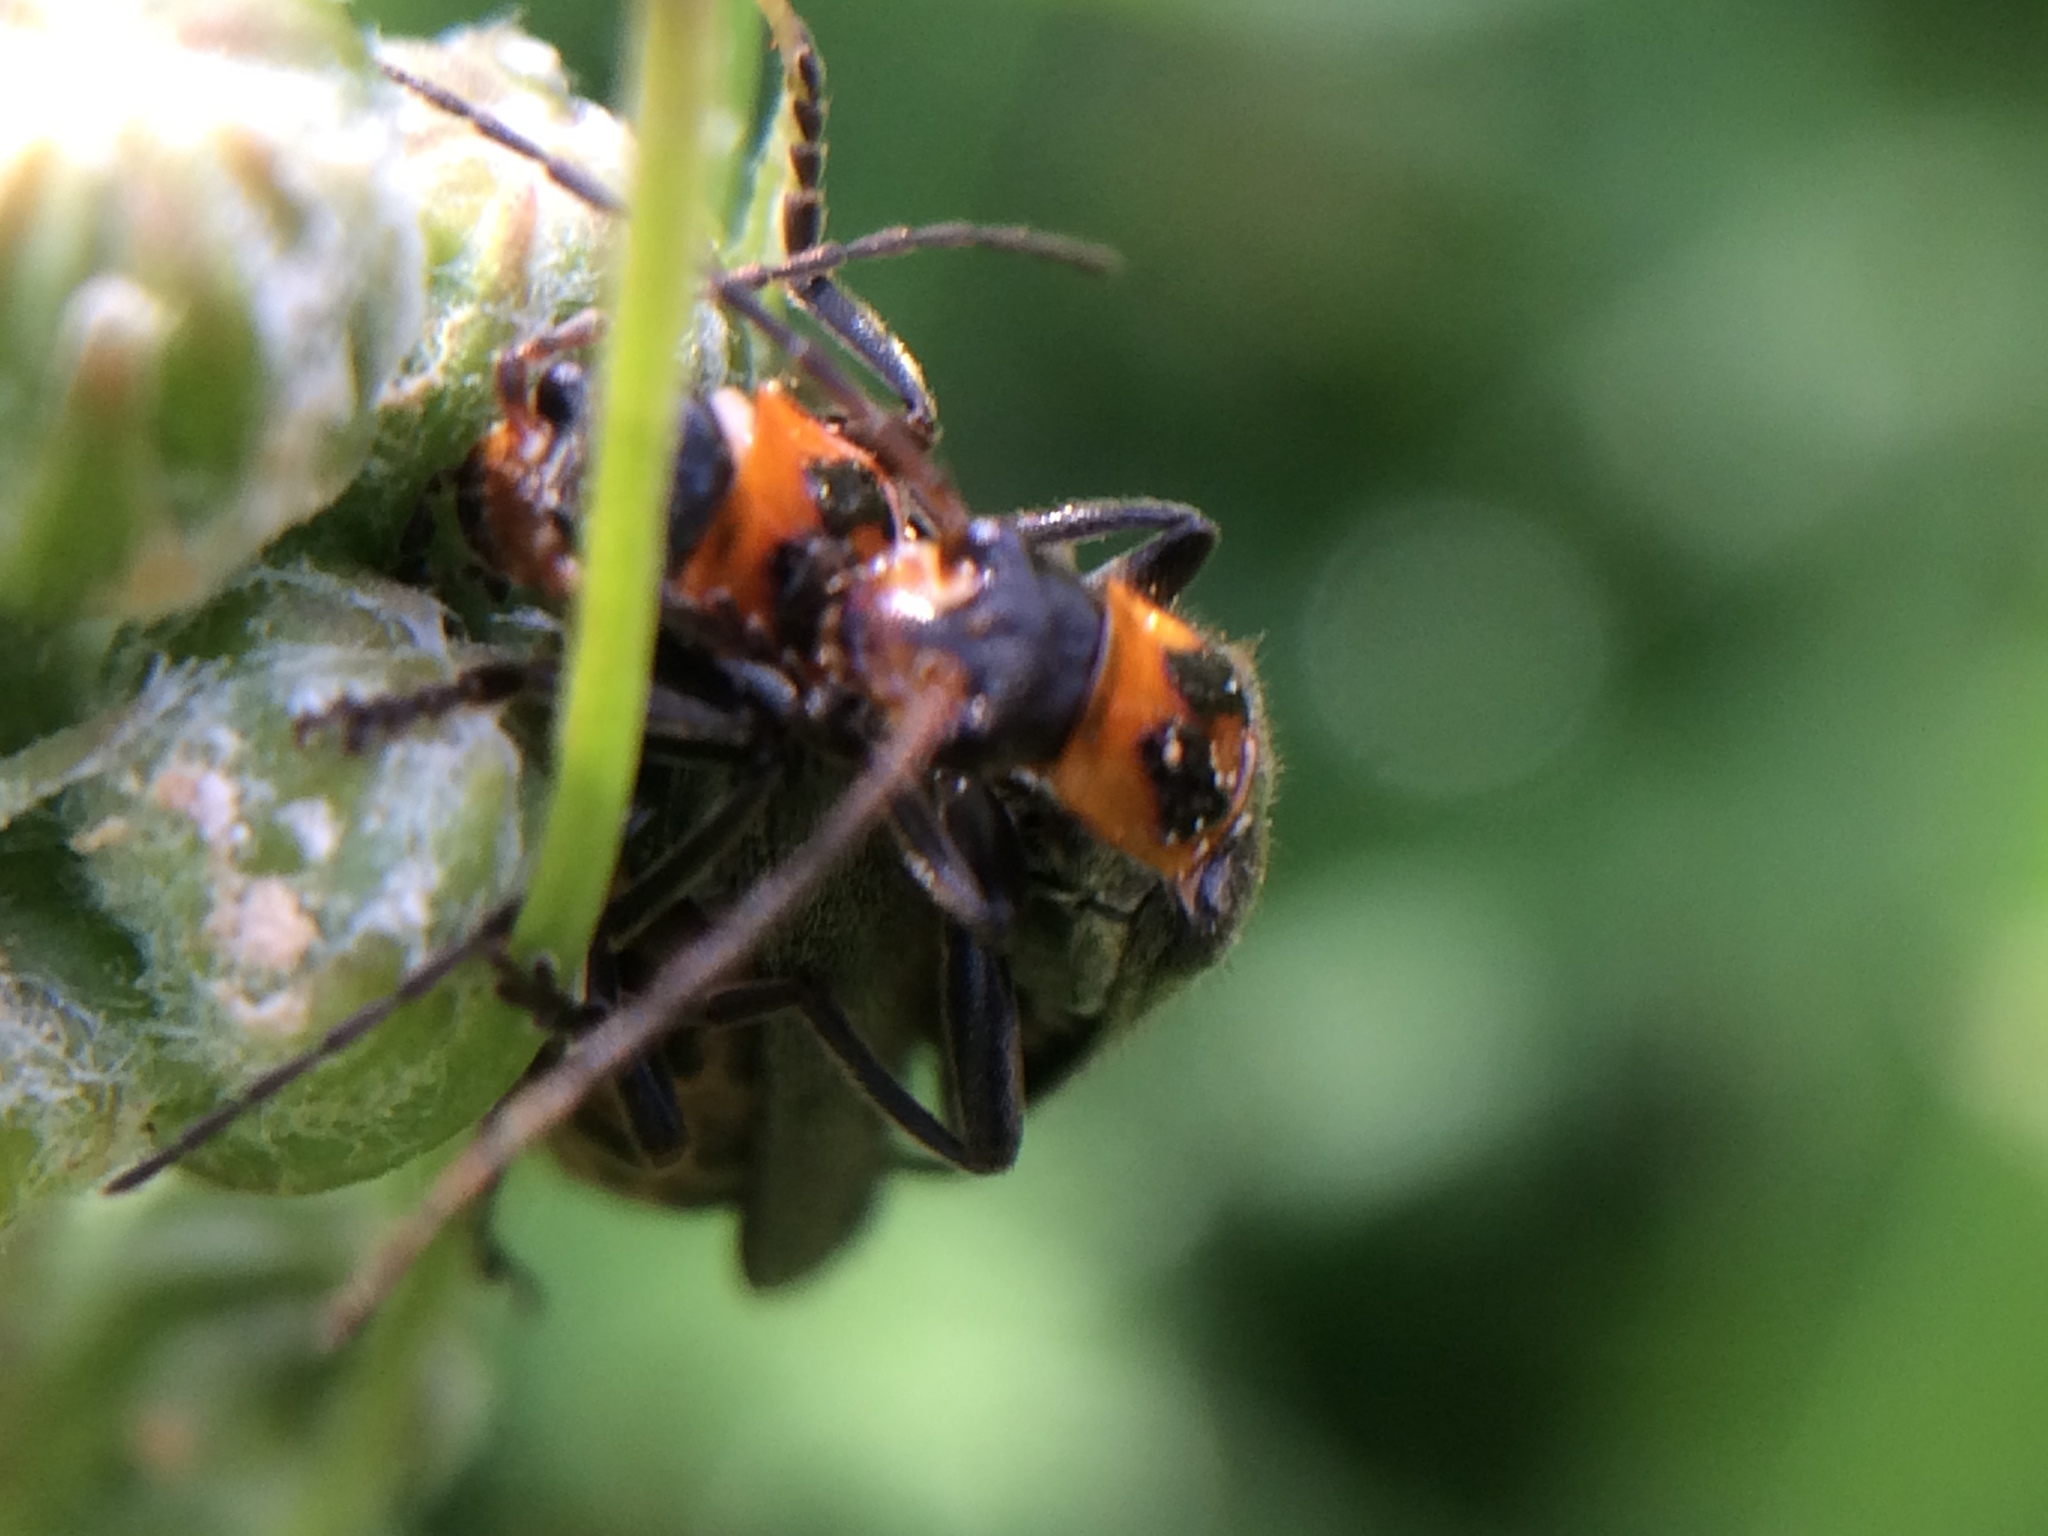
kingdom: Animalia
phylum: Arthropoda
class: Insecta
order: Coleoptera
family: Cantharidae
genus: Cyrtomoptera
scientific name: Cyrtomoptera divisa
